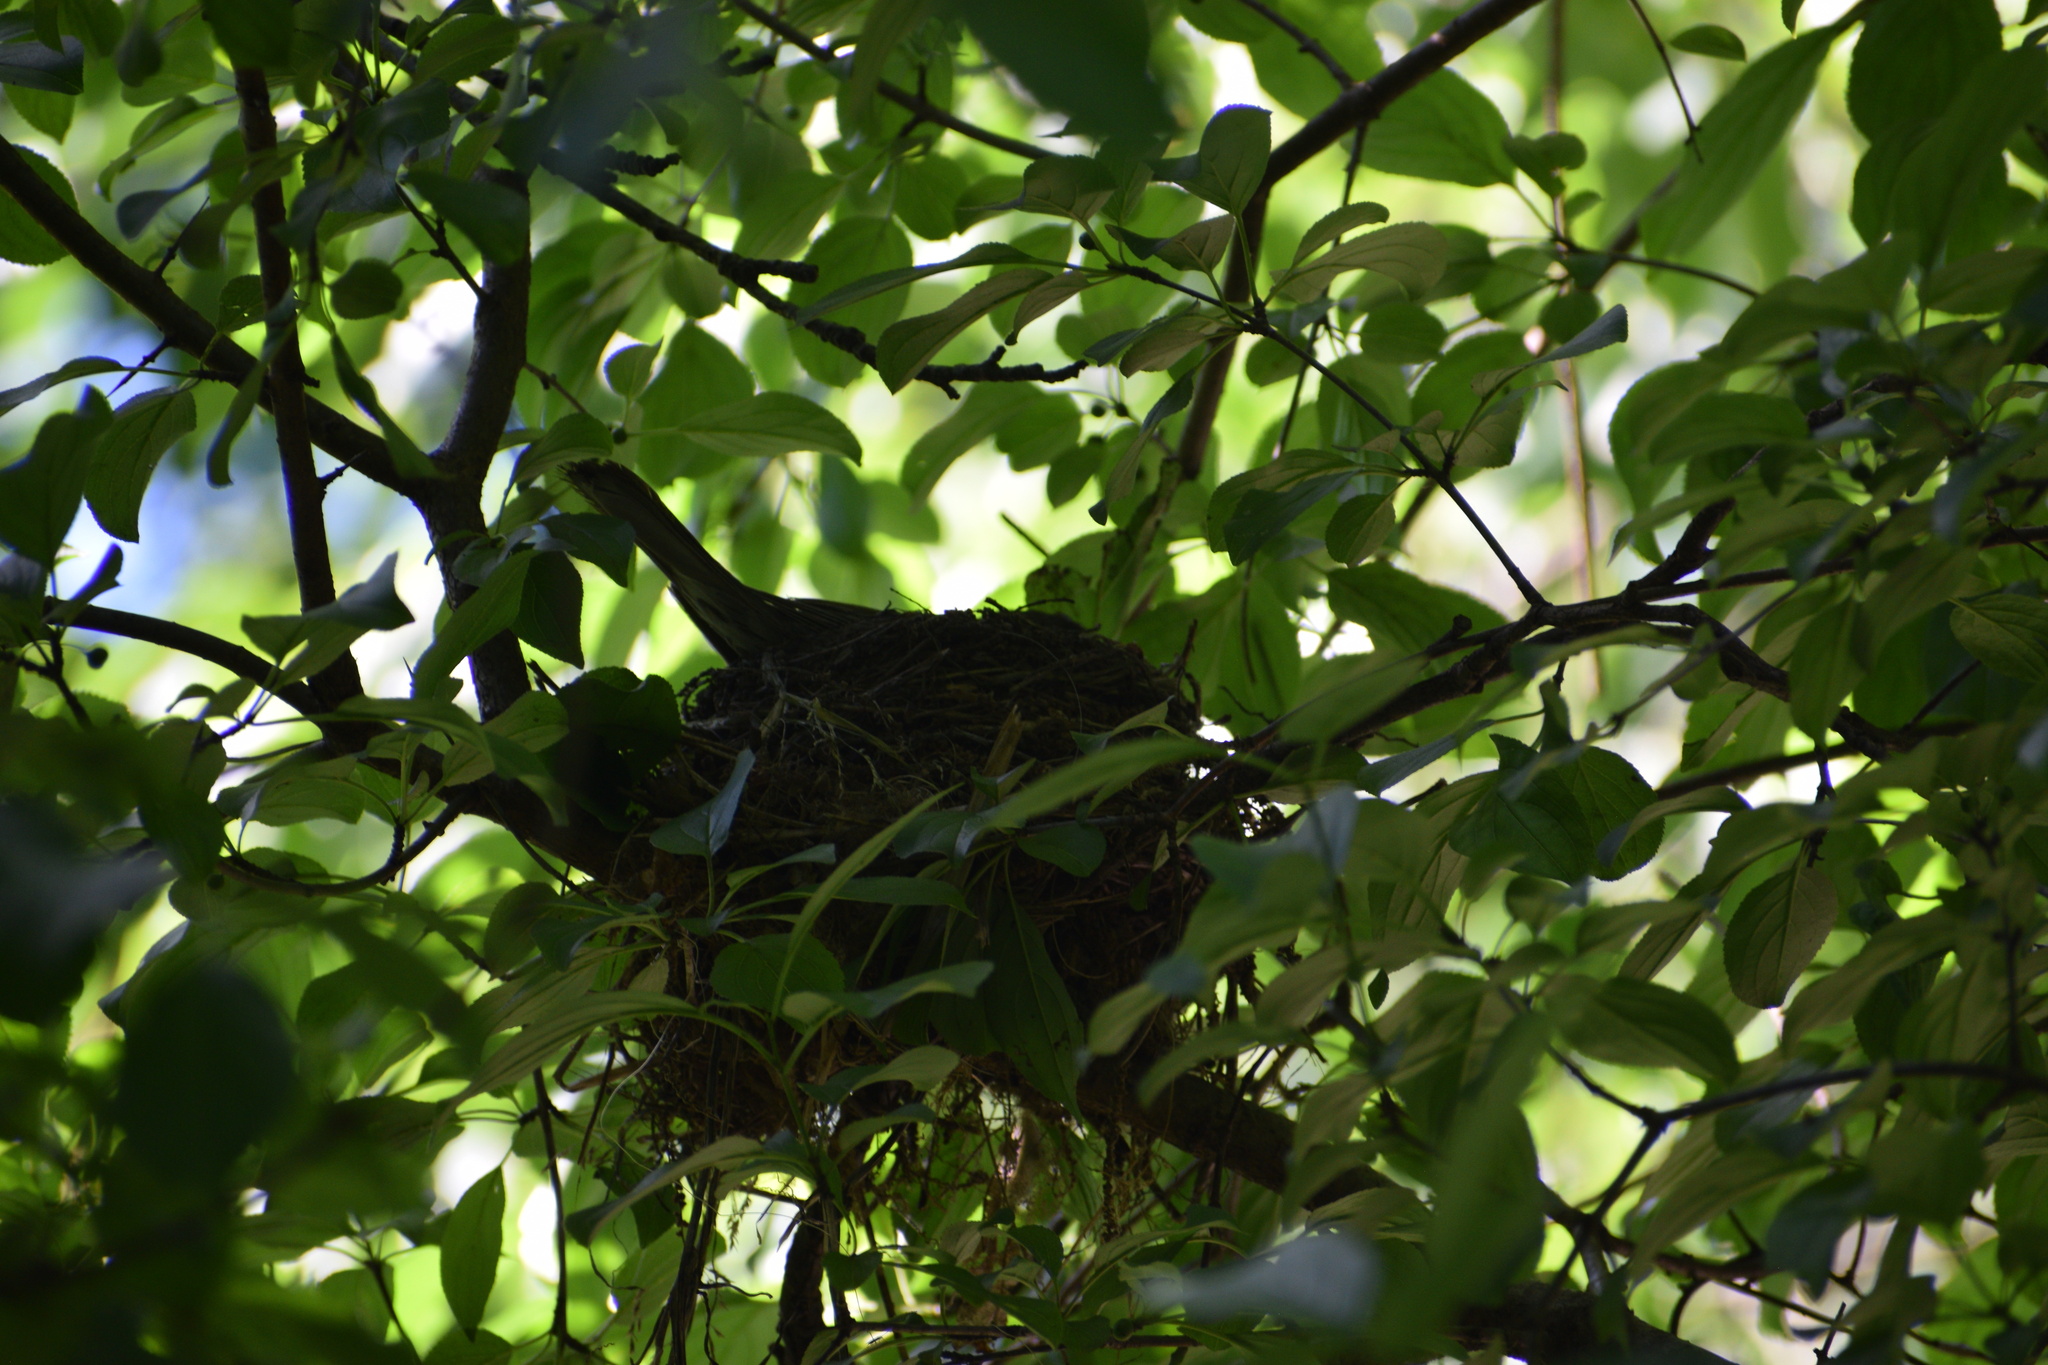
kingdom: Animalia
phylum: Chordata
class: Aves
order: Passeriformes
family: Turdidae
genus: Turdus
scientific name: Turdus migratorius
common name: American robin
